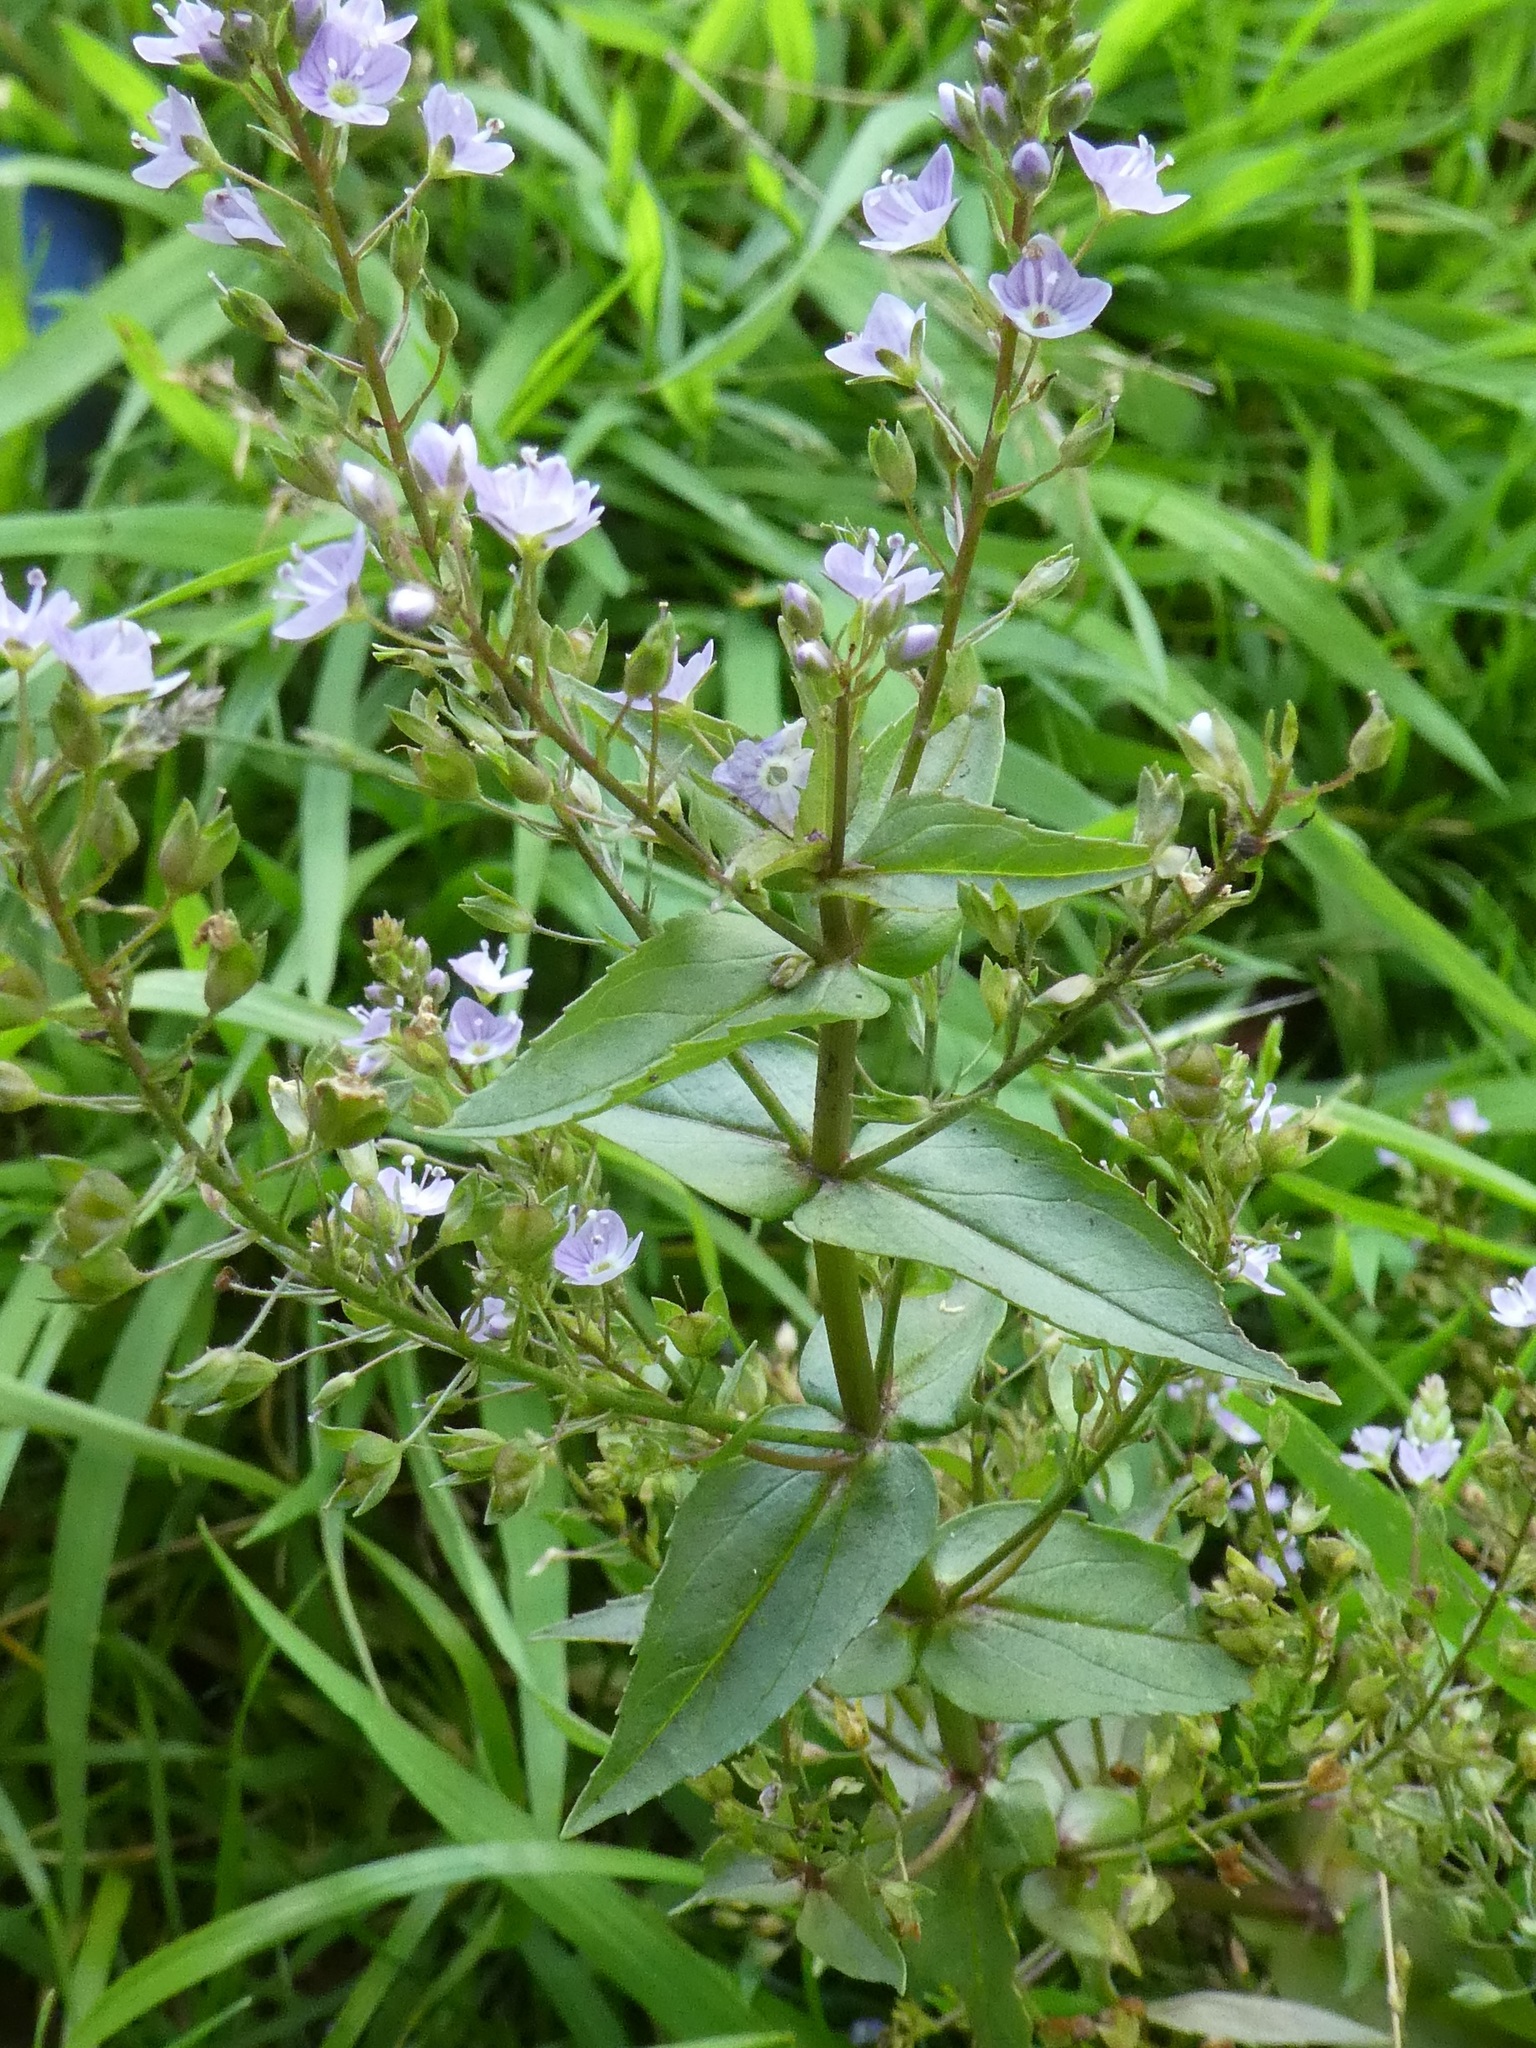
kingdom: Plantae
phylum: Tracheophyta
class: Magnoliopsida
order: Lamiales
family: Plantaginaceae
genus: Veronica
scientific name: Veronica anagallis-aquatica
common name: Water speedwell
